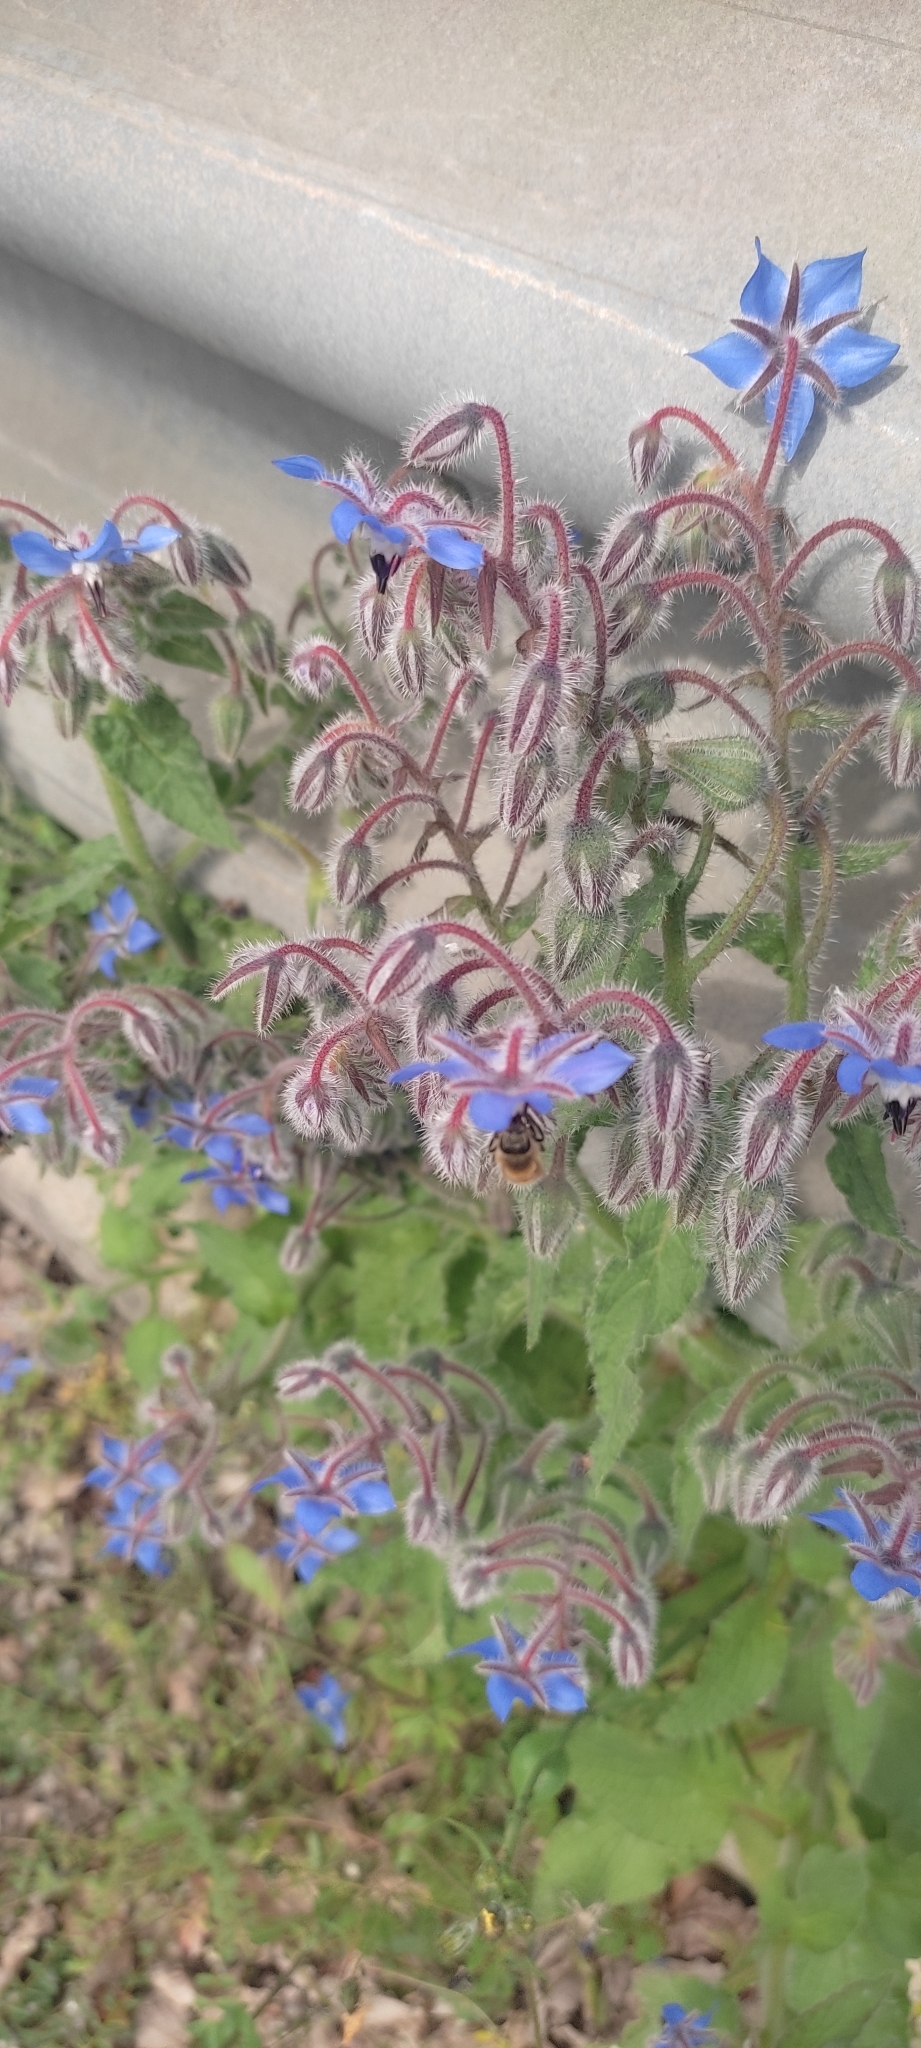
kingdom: Plantae
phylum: Tracheophyta
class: Magnoliopsida
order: Boraginales
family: Boraginaceae
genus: Borago
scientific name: Borago officinalis
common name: Borage
